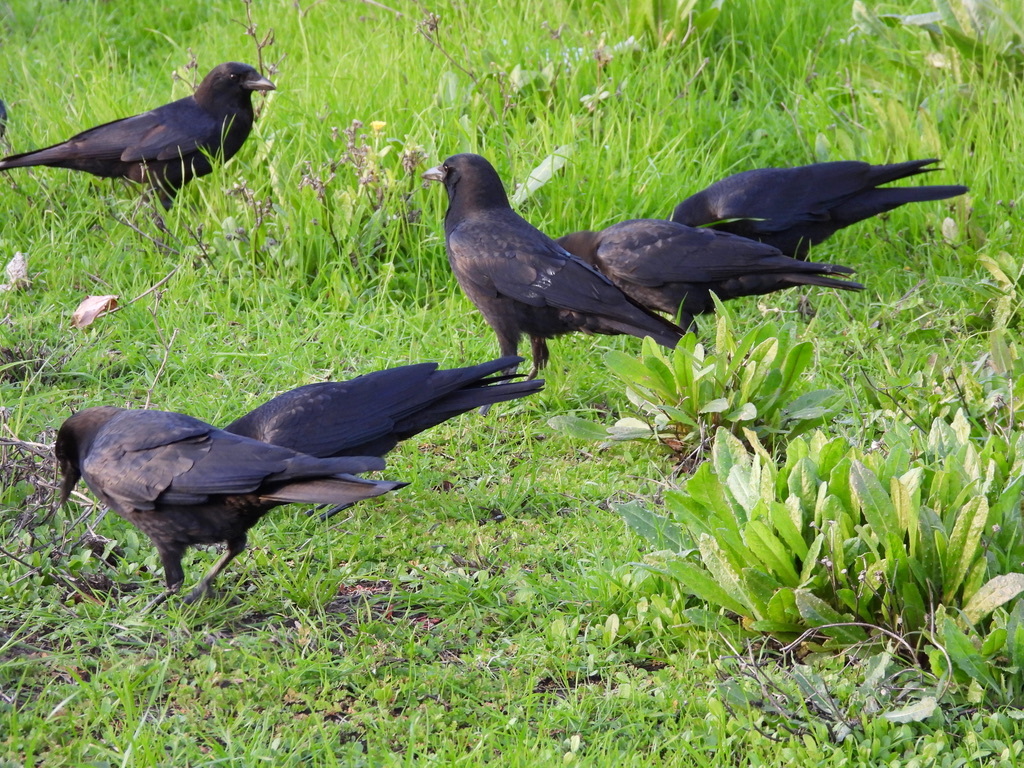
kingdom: Animalia
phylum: Chordata
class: Aves
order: Passeriformes
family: Corvidae
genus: Corvus
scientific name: Corvus brachyrhynchos
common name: American crow
